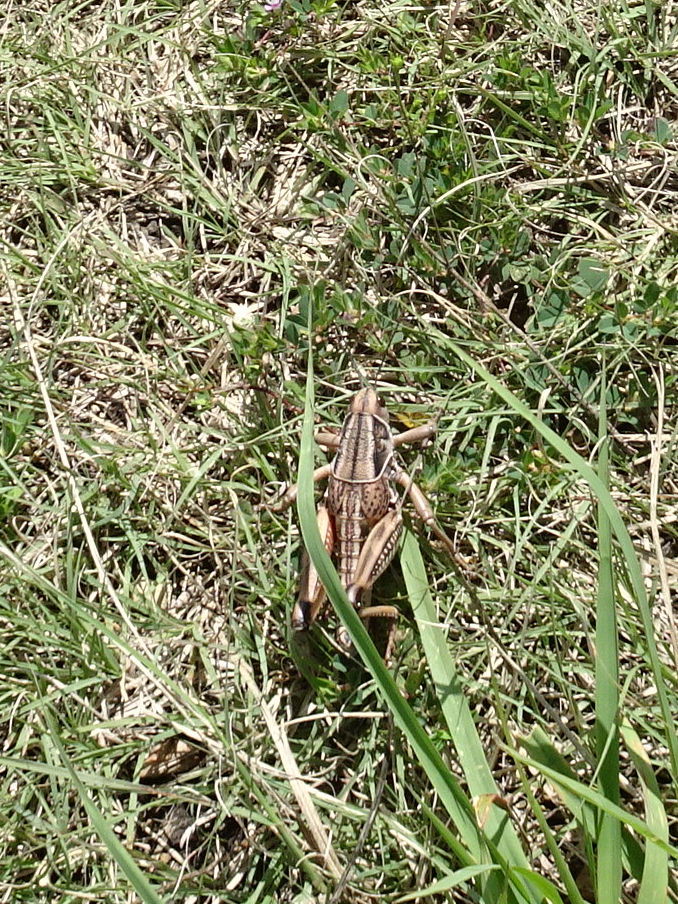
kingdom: Animalia
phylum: Arthropoda
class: Insecta
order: Orthoptera
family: Romaleidae
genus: Brachystola
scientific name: Brachystola magna
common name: Plains lubber grasshopper
